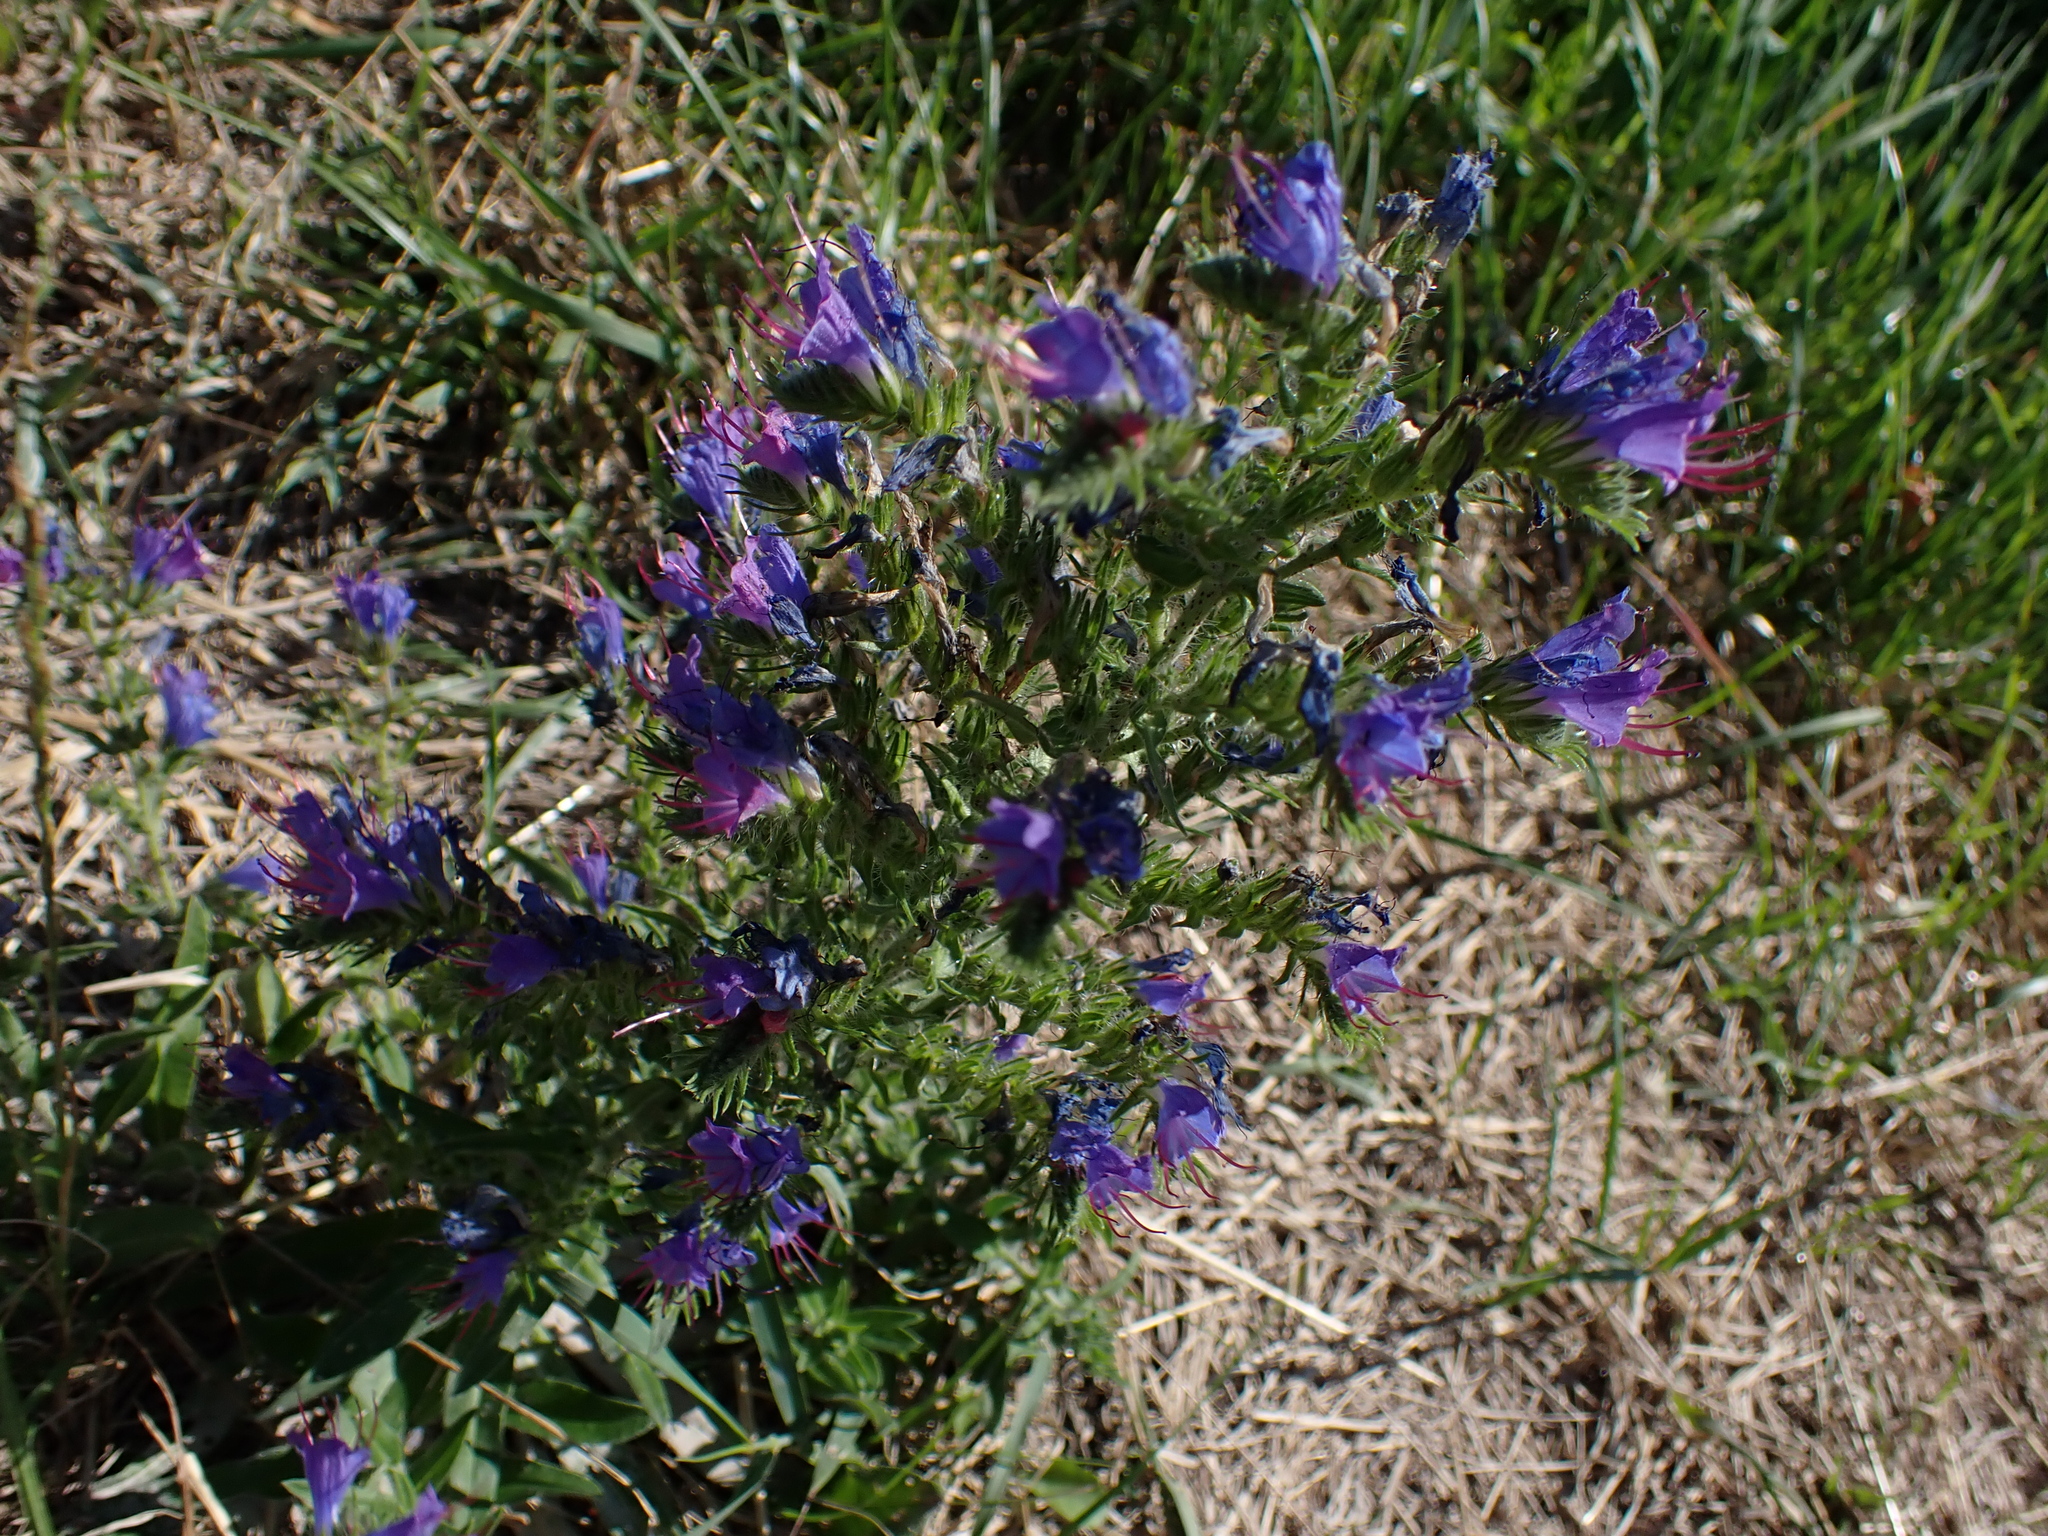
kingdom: Plantae
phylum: Tracheophyta
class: Magnoliopsida
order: Boraginales
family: Boraginaceae
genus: Echium
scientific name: Echium vulgare
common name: Common viper's bugloss
